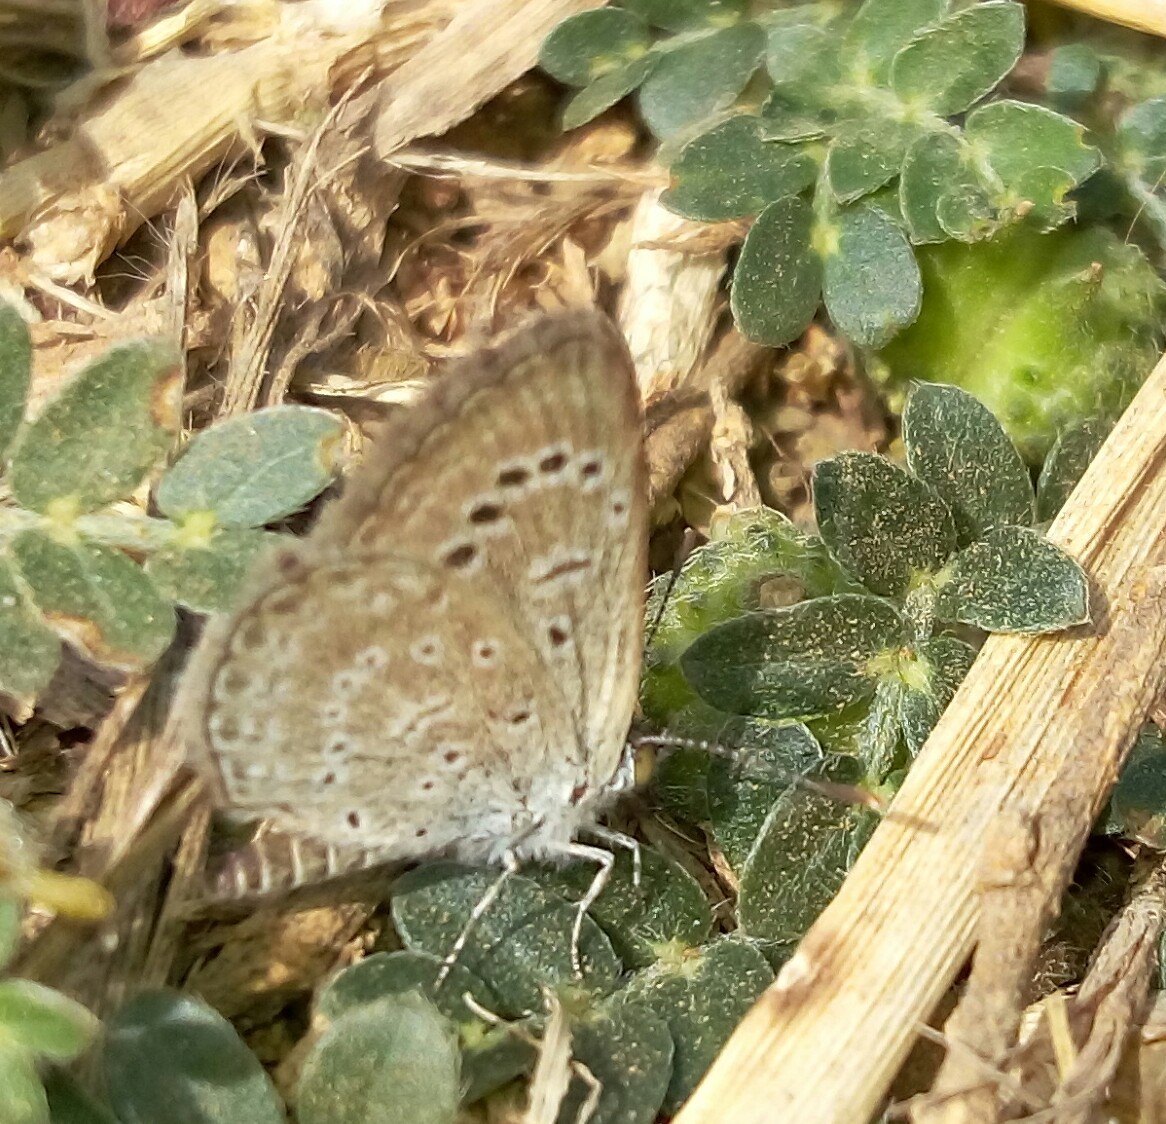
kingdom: Animalia
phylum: Arthropoda
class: Insecta
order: Lepidoptera
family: Lycaenidae
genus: Pseudozizeeria
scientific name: Pseudozizeeria maha
